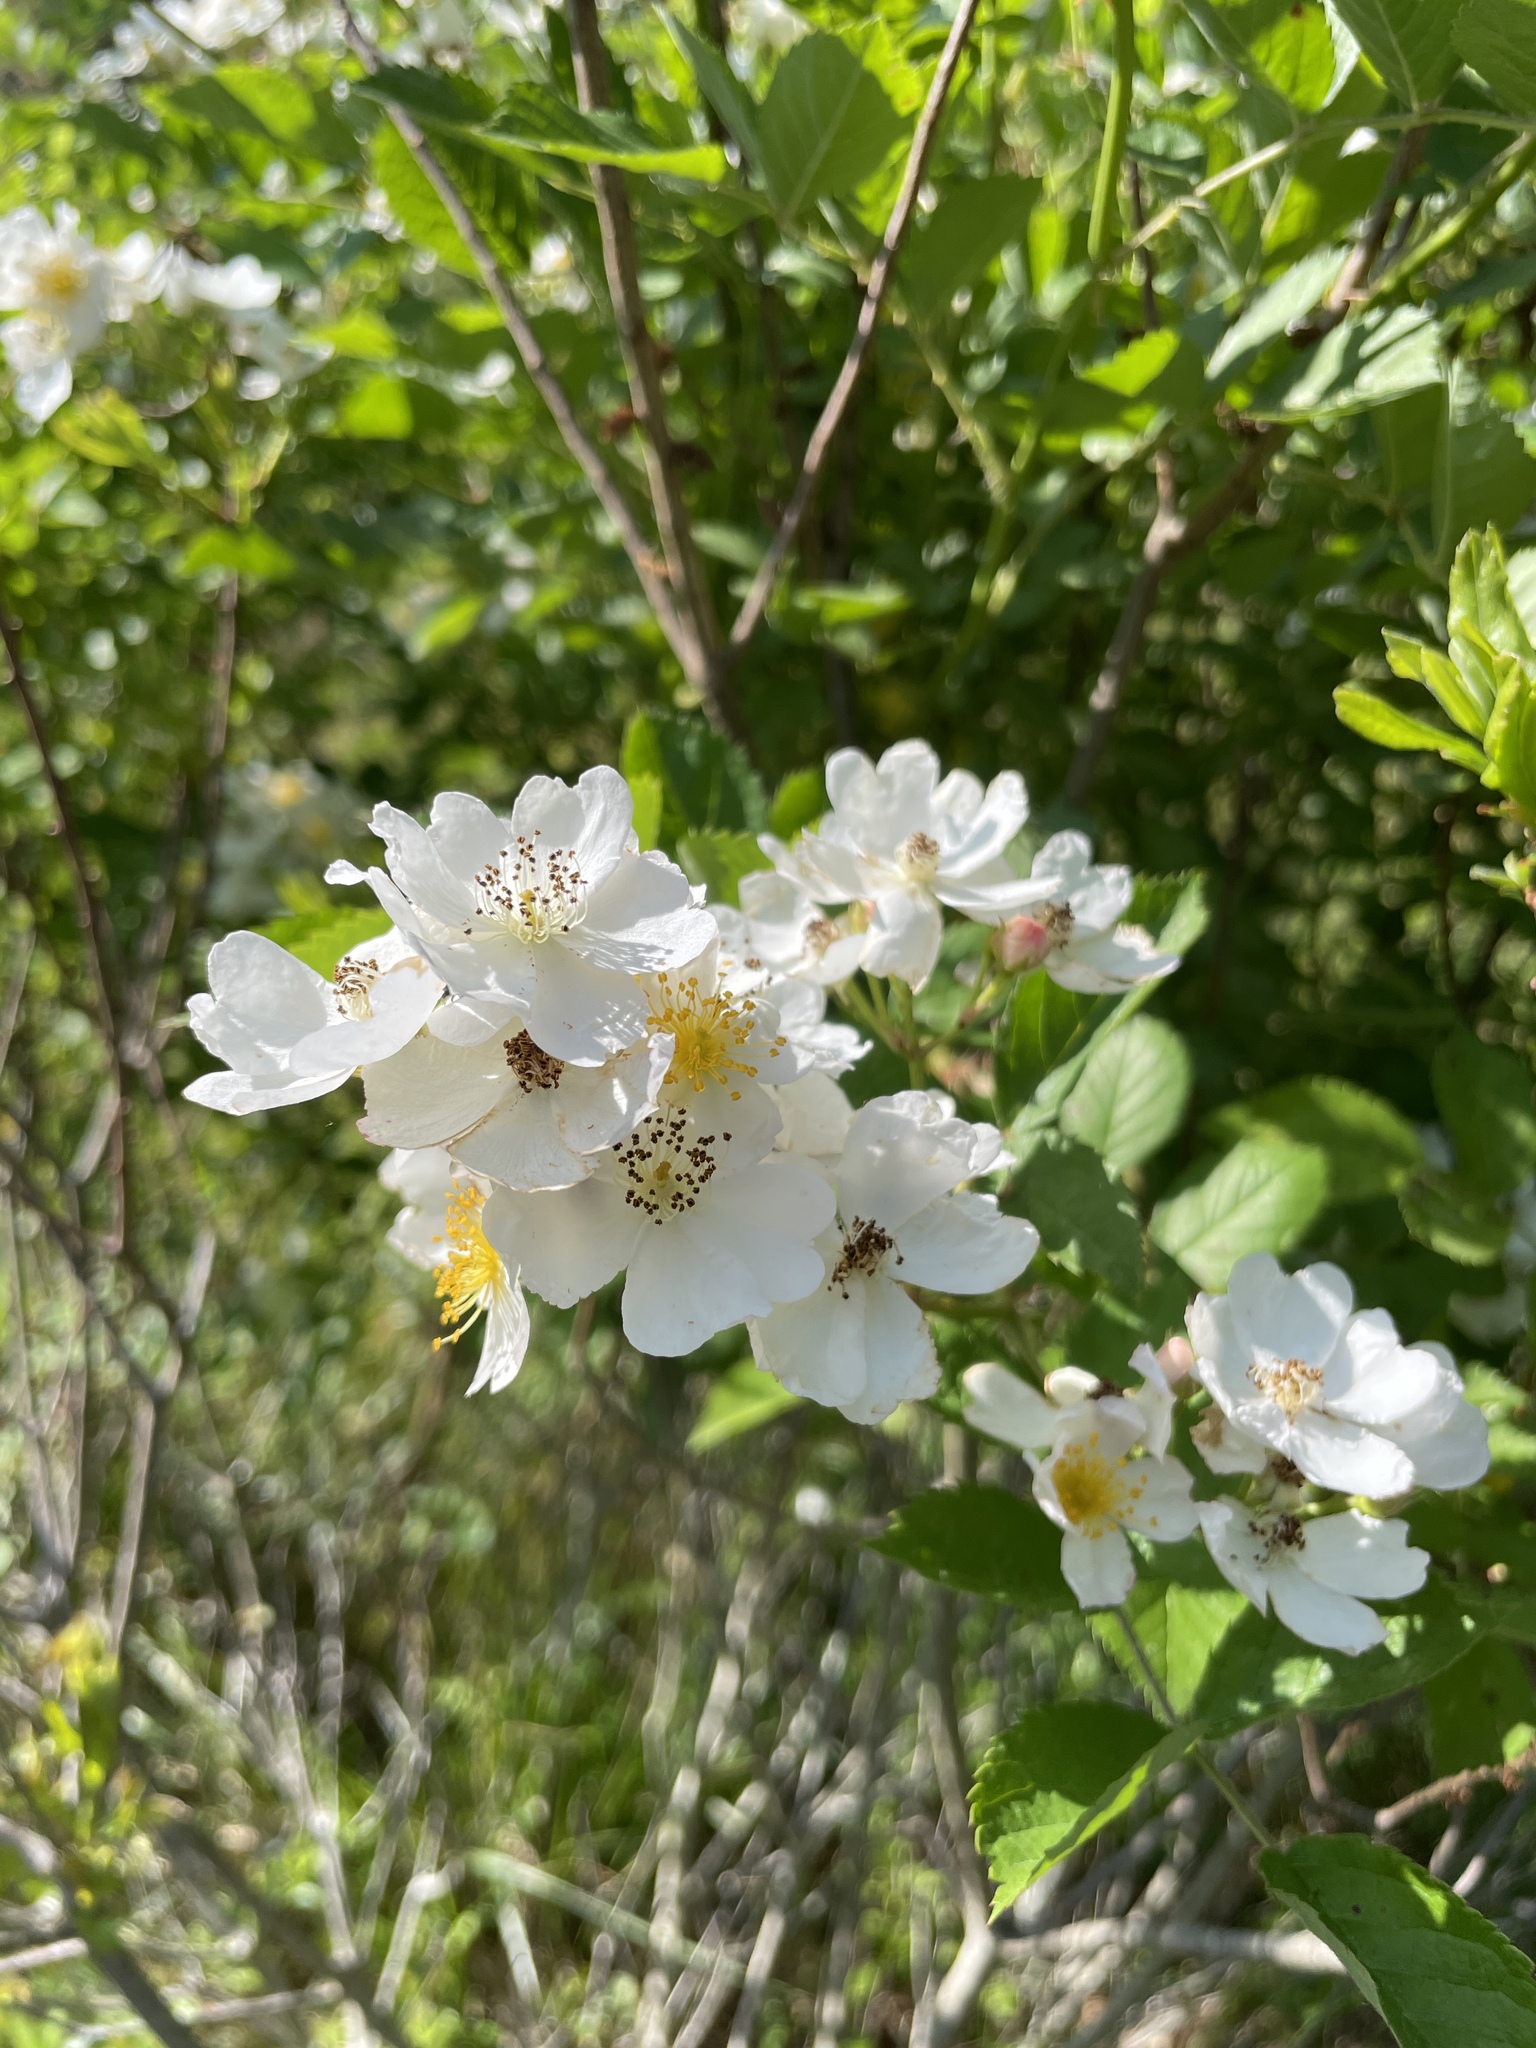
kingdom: Plantae
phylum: Tracheophyta
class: Magnoliopsida
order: Rosales
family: Rosaceae
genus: Rosa
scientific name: Rosa multiflora
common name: Multiflora rose
